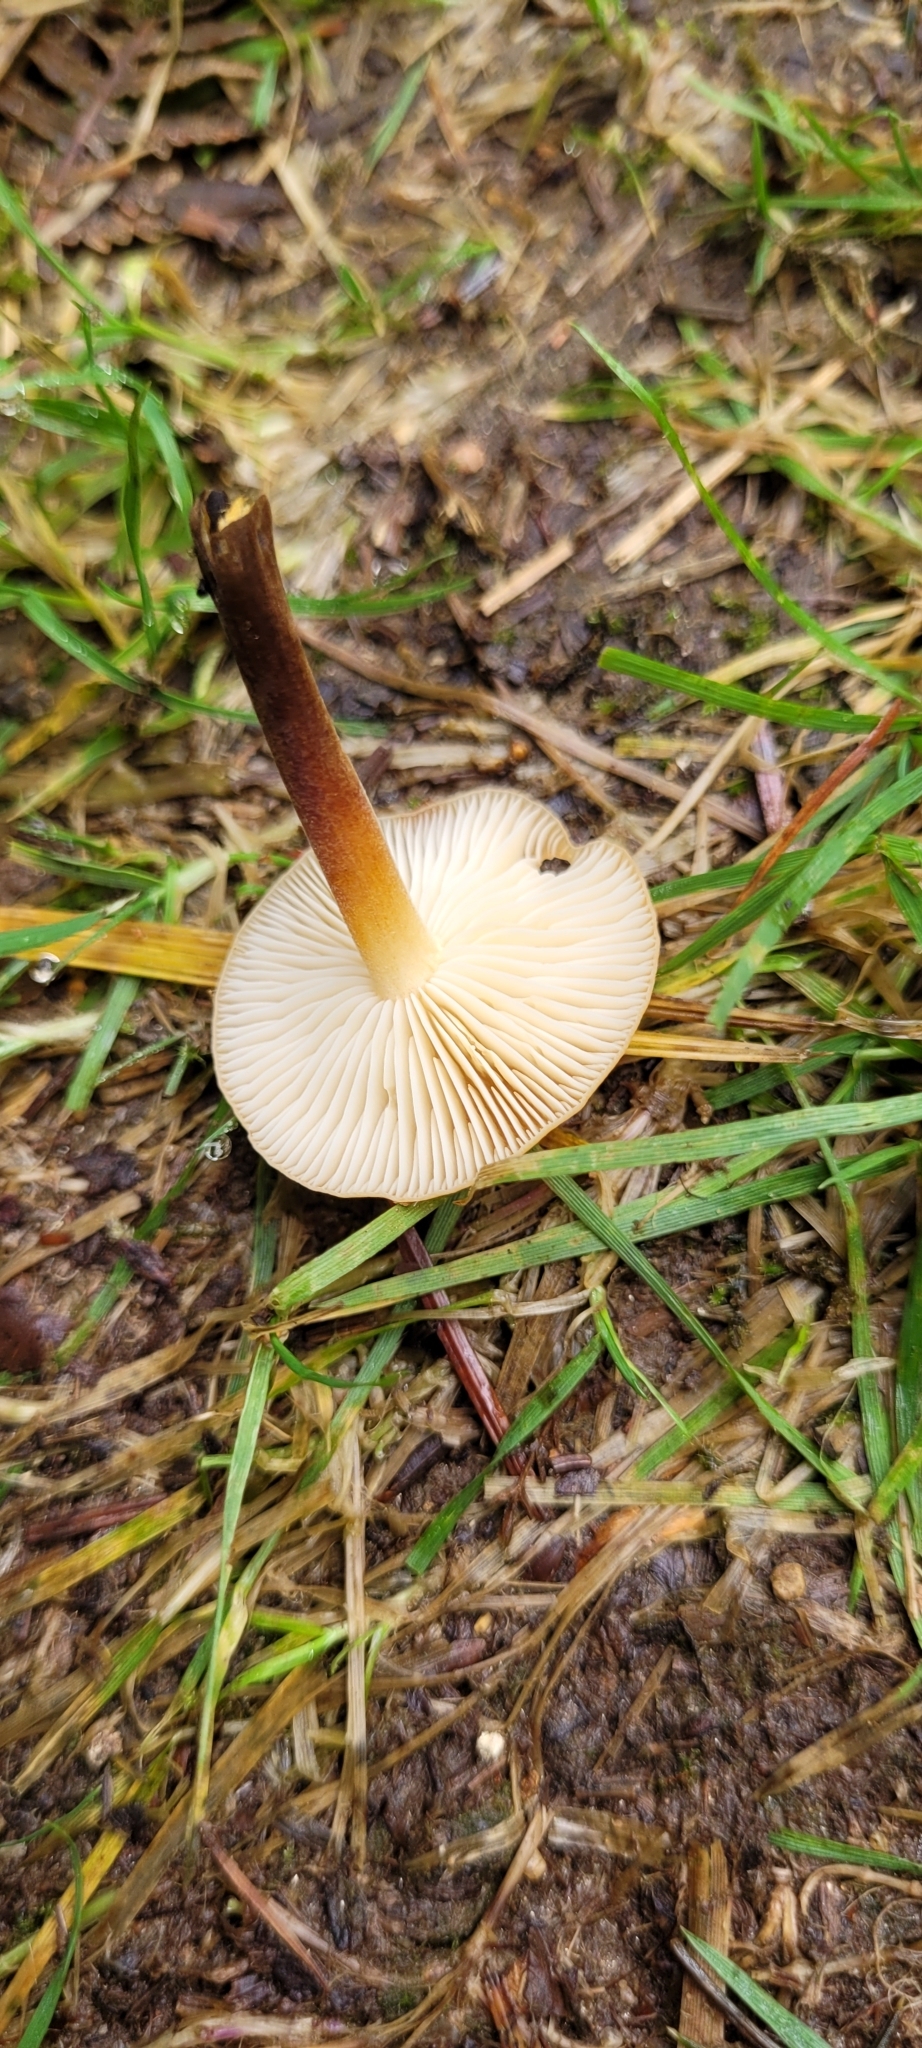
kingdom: Fungi
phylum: Basidiomycota
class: Agaricomycetes
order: Agaricales
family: Physalacriaceae
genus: Flammulina
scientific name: Flammulina
